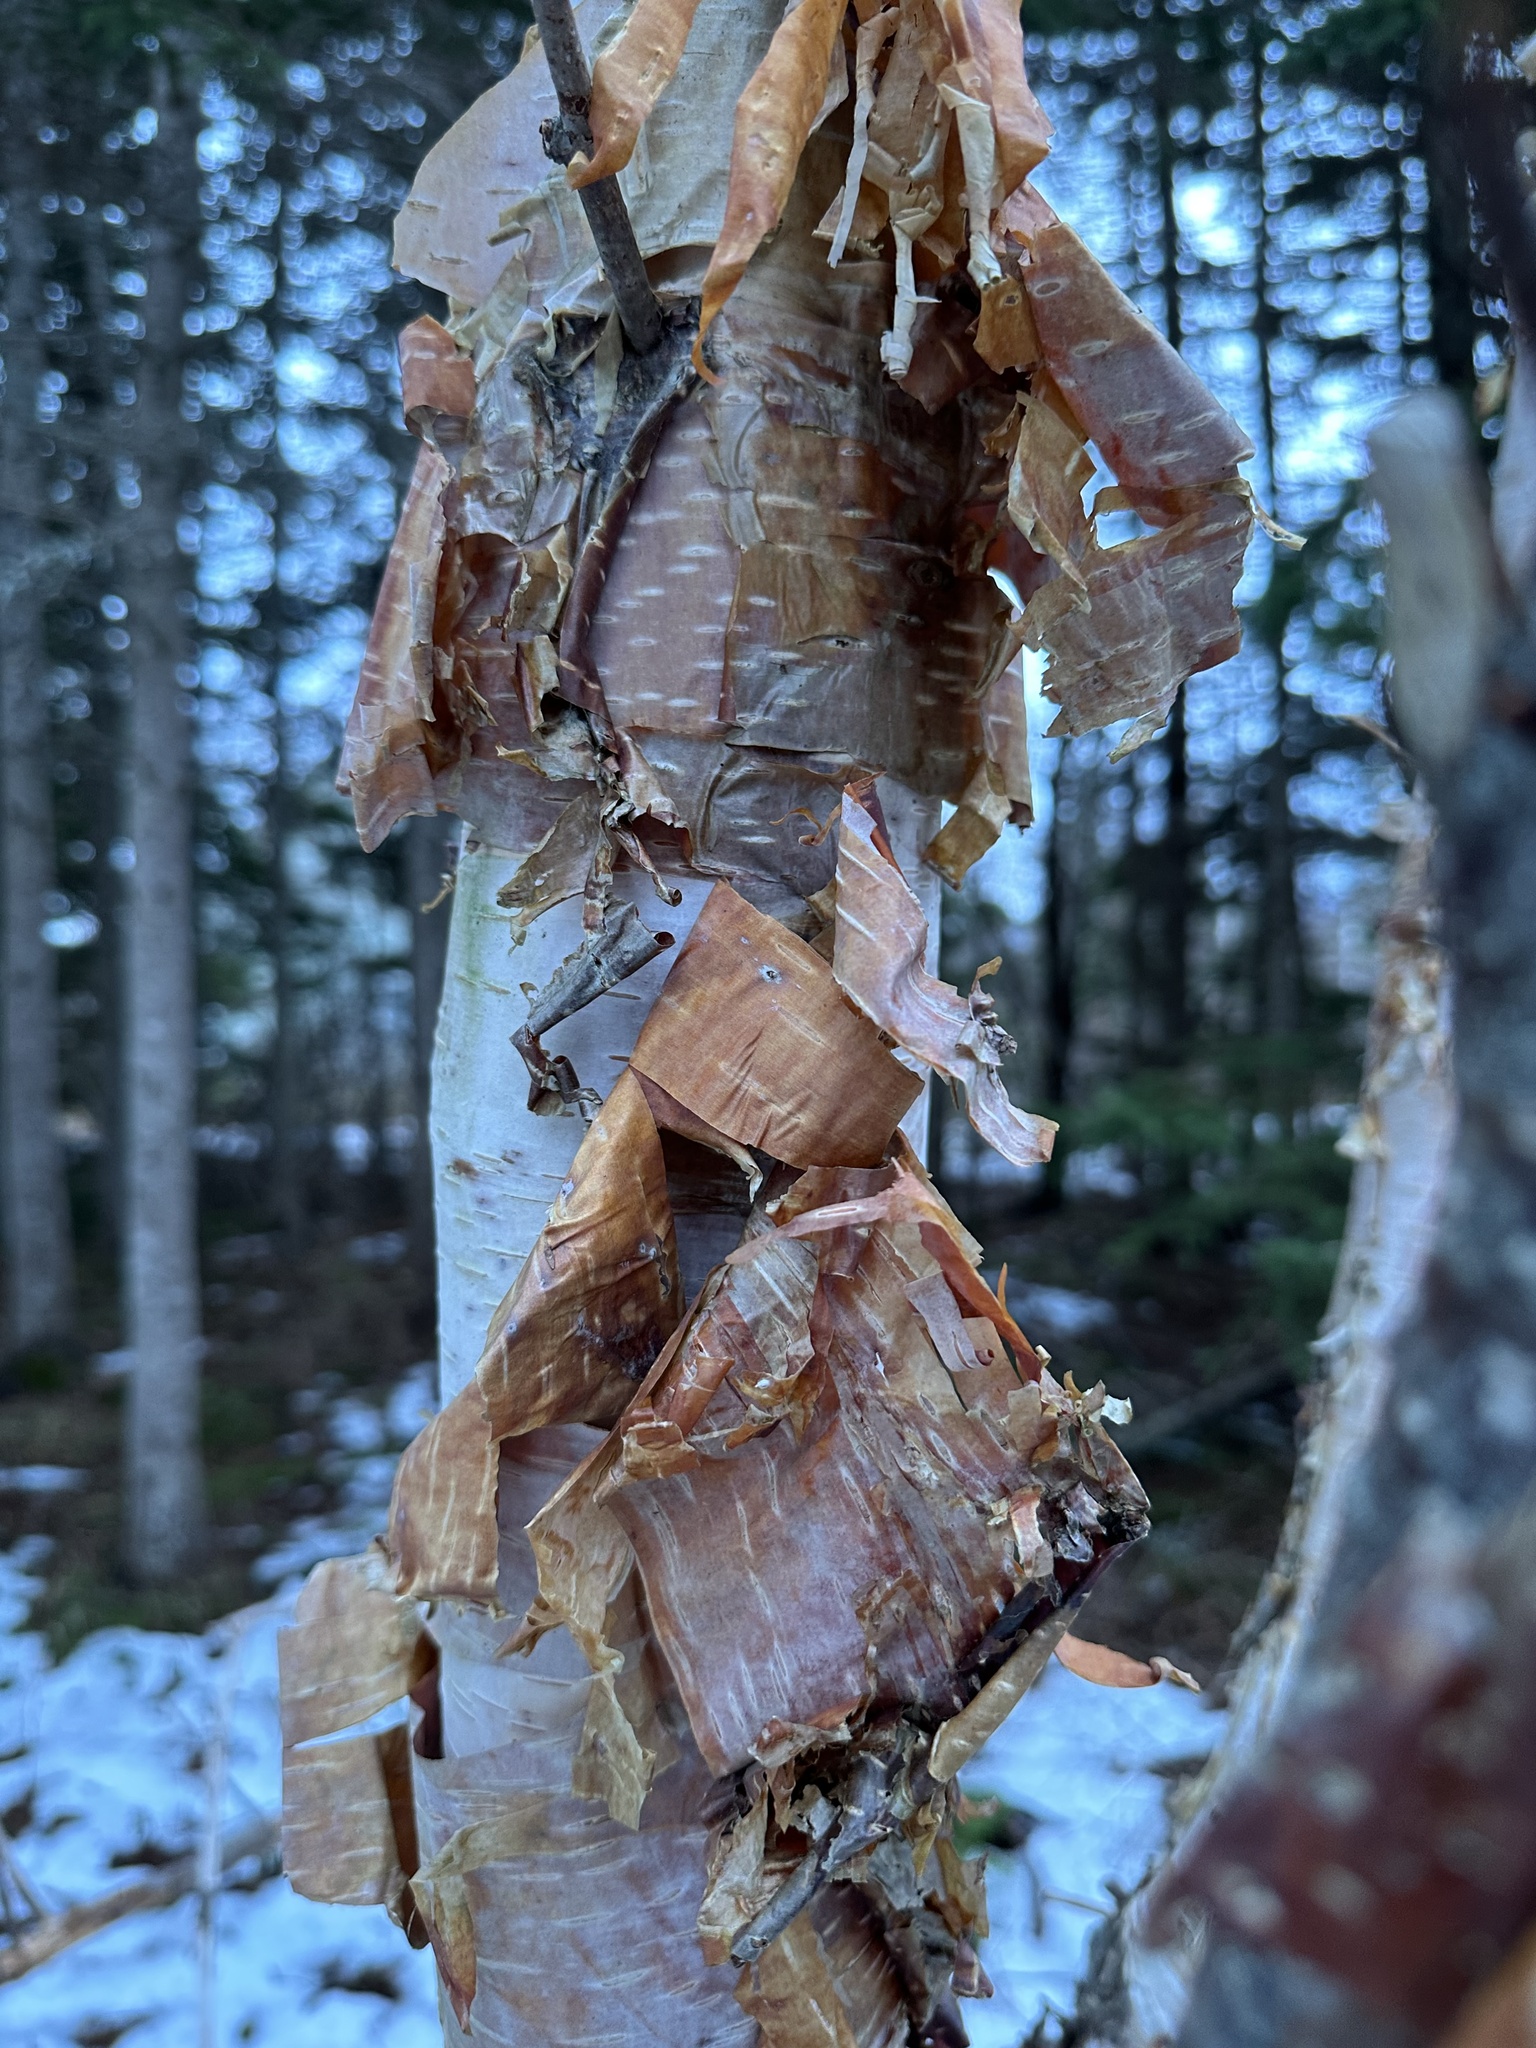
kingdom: Plantae
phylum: Tracheophyta
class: Magnoliopsida
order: Fagales
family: Betulaceae
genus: Betula
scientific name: Betula papyrifera
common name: Paper birch
